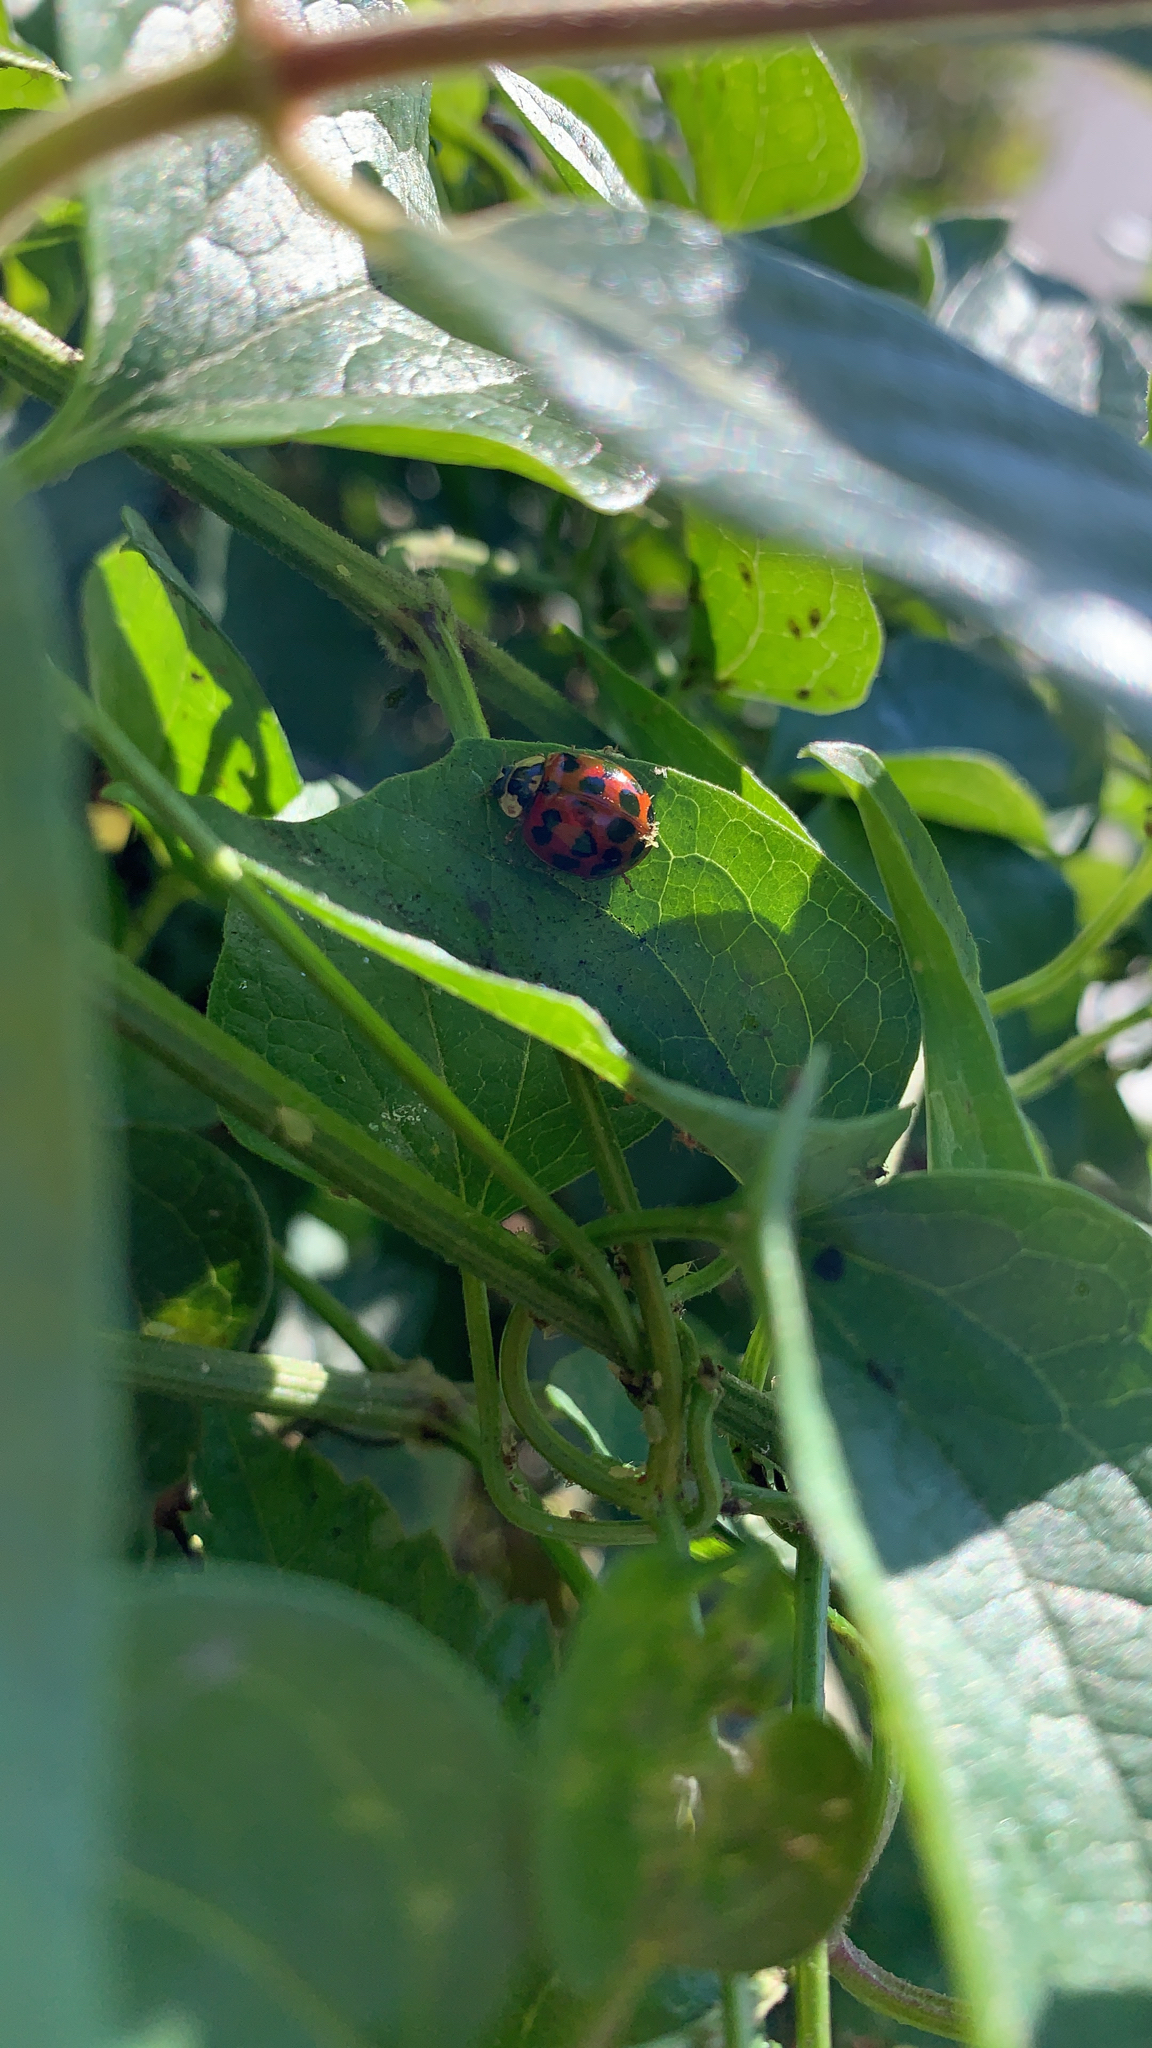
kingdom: Animalia
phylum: Arthropoda
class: Insecta
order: Coleoptera
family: Coccinellidae
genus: Harmonia
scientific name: Harmonia axyridis
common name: Harlequin ladybird
